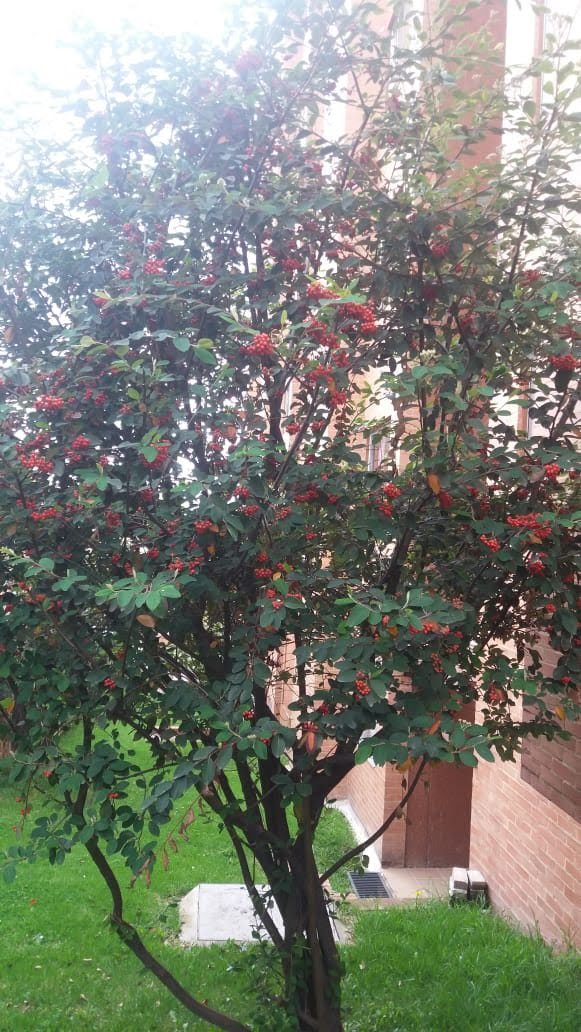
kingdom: Plantae
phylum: Tracheophyta
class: Magnoliopsida
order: Rosales
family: Rosaceae
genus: Cotoneaster
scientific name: Cotoneaster coriaceus
